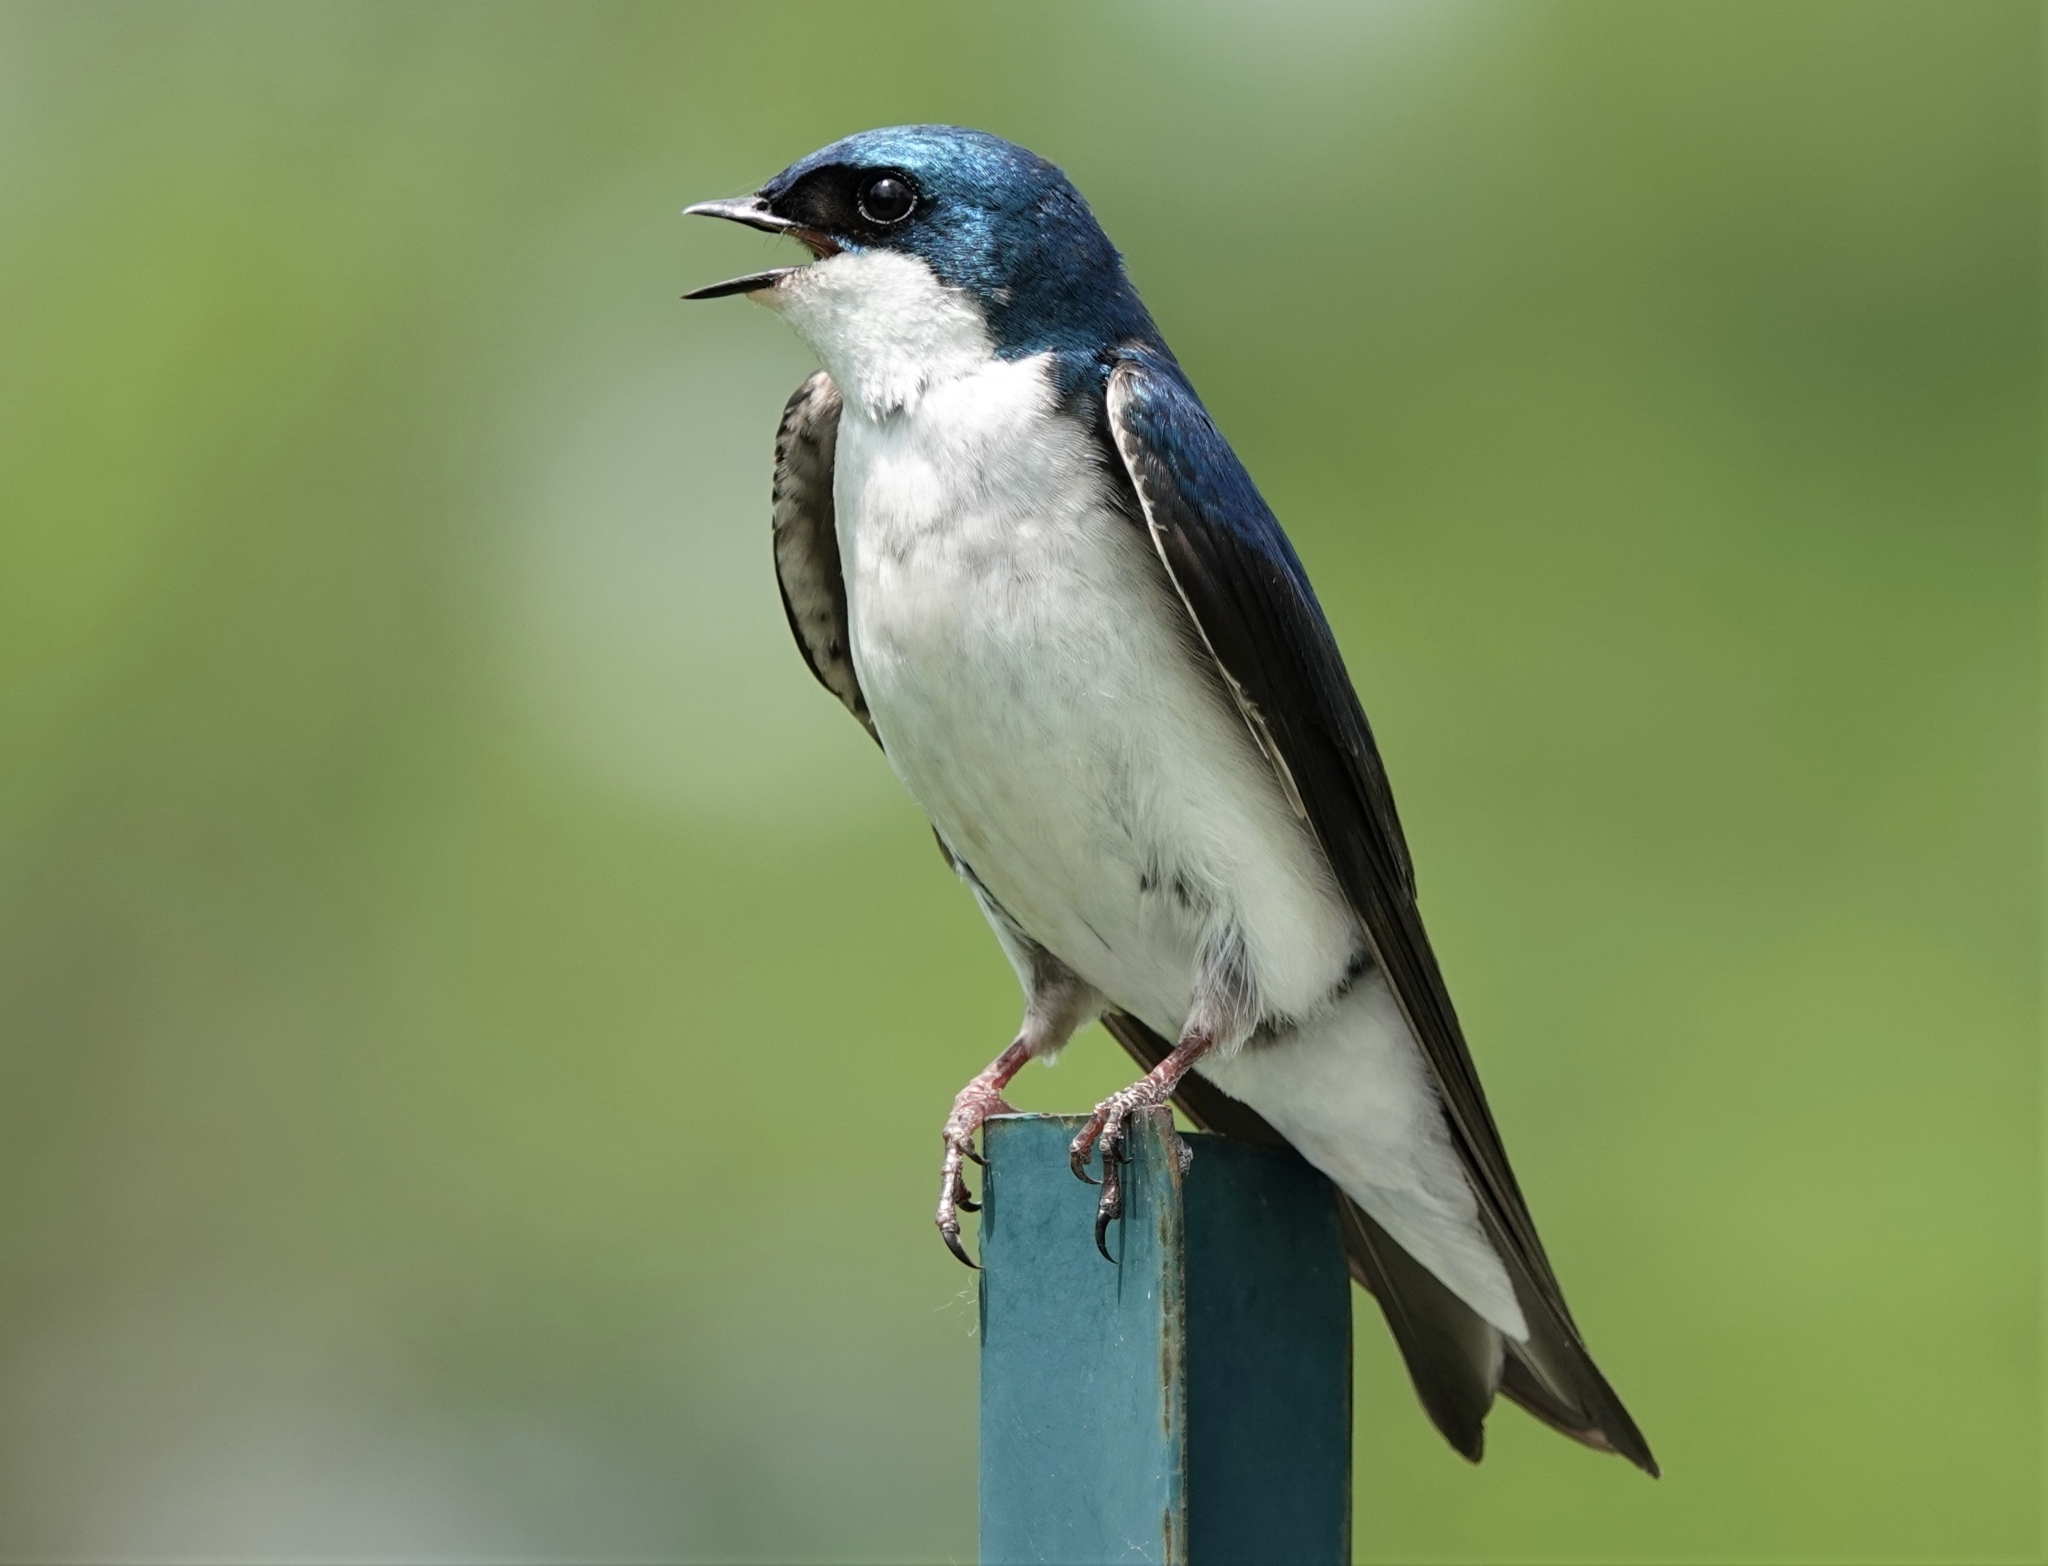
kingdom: Animalia
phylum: Chordata
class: Aves
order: Passeriformes
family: Hirundinidae
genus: Tachycineta
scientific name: Tachycineta bicolor
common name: Tree swallow
